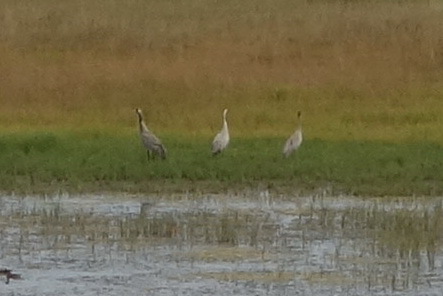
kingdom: Animalia
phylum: Chordata
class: Aves
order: Gruiformes
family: Gruidae
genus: Grus
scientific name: Grus grus
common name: Common crane
